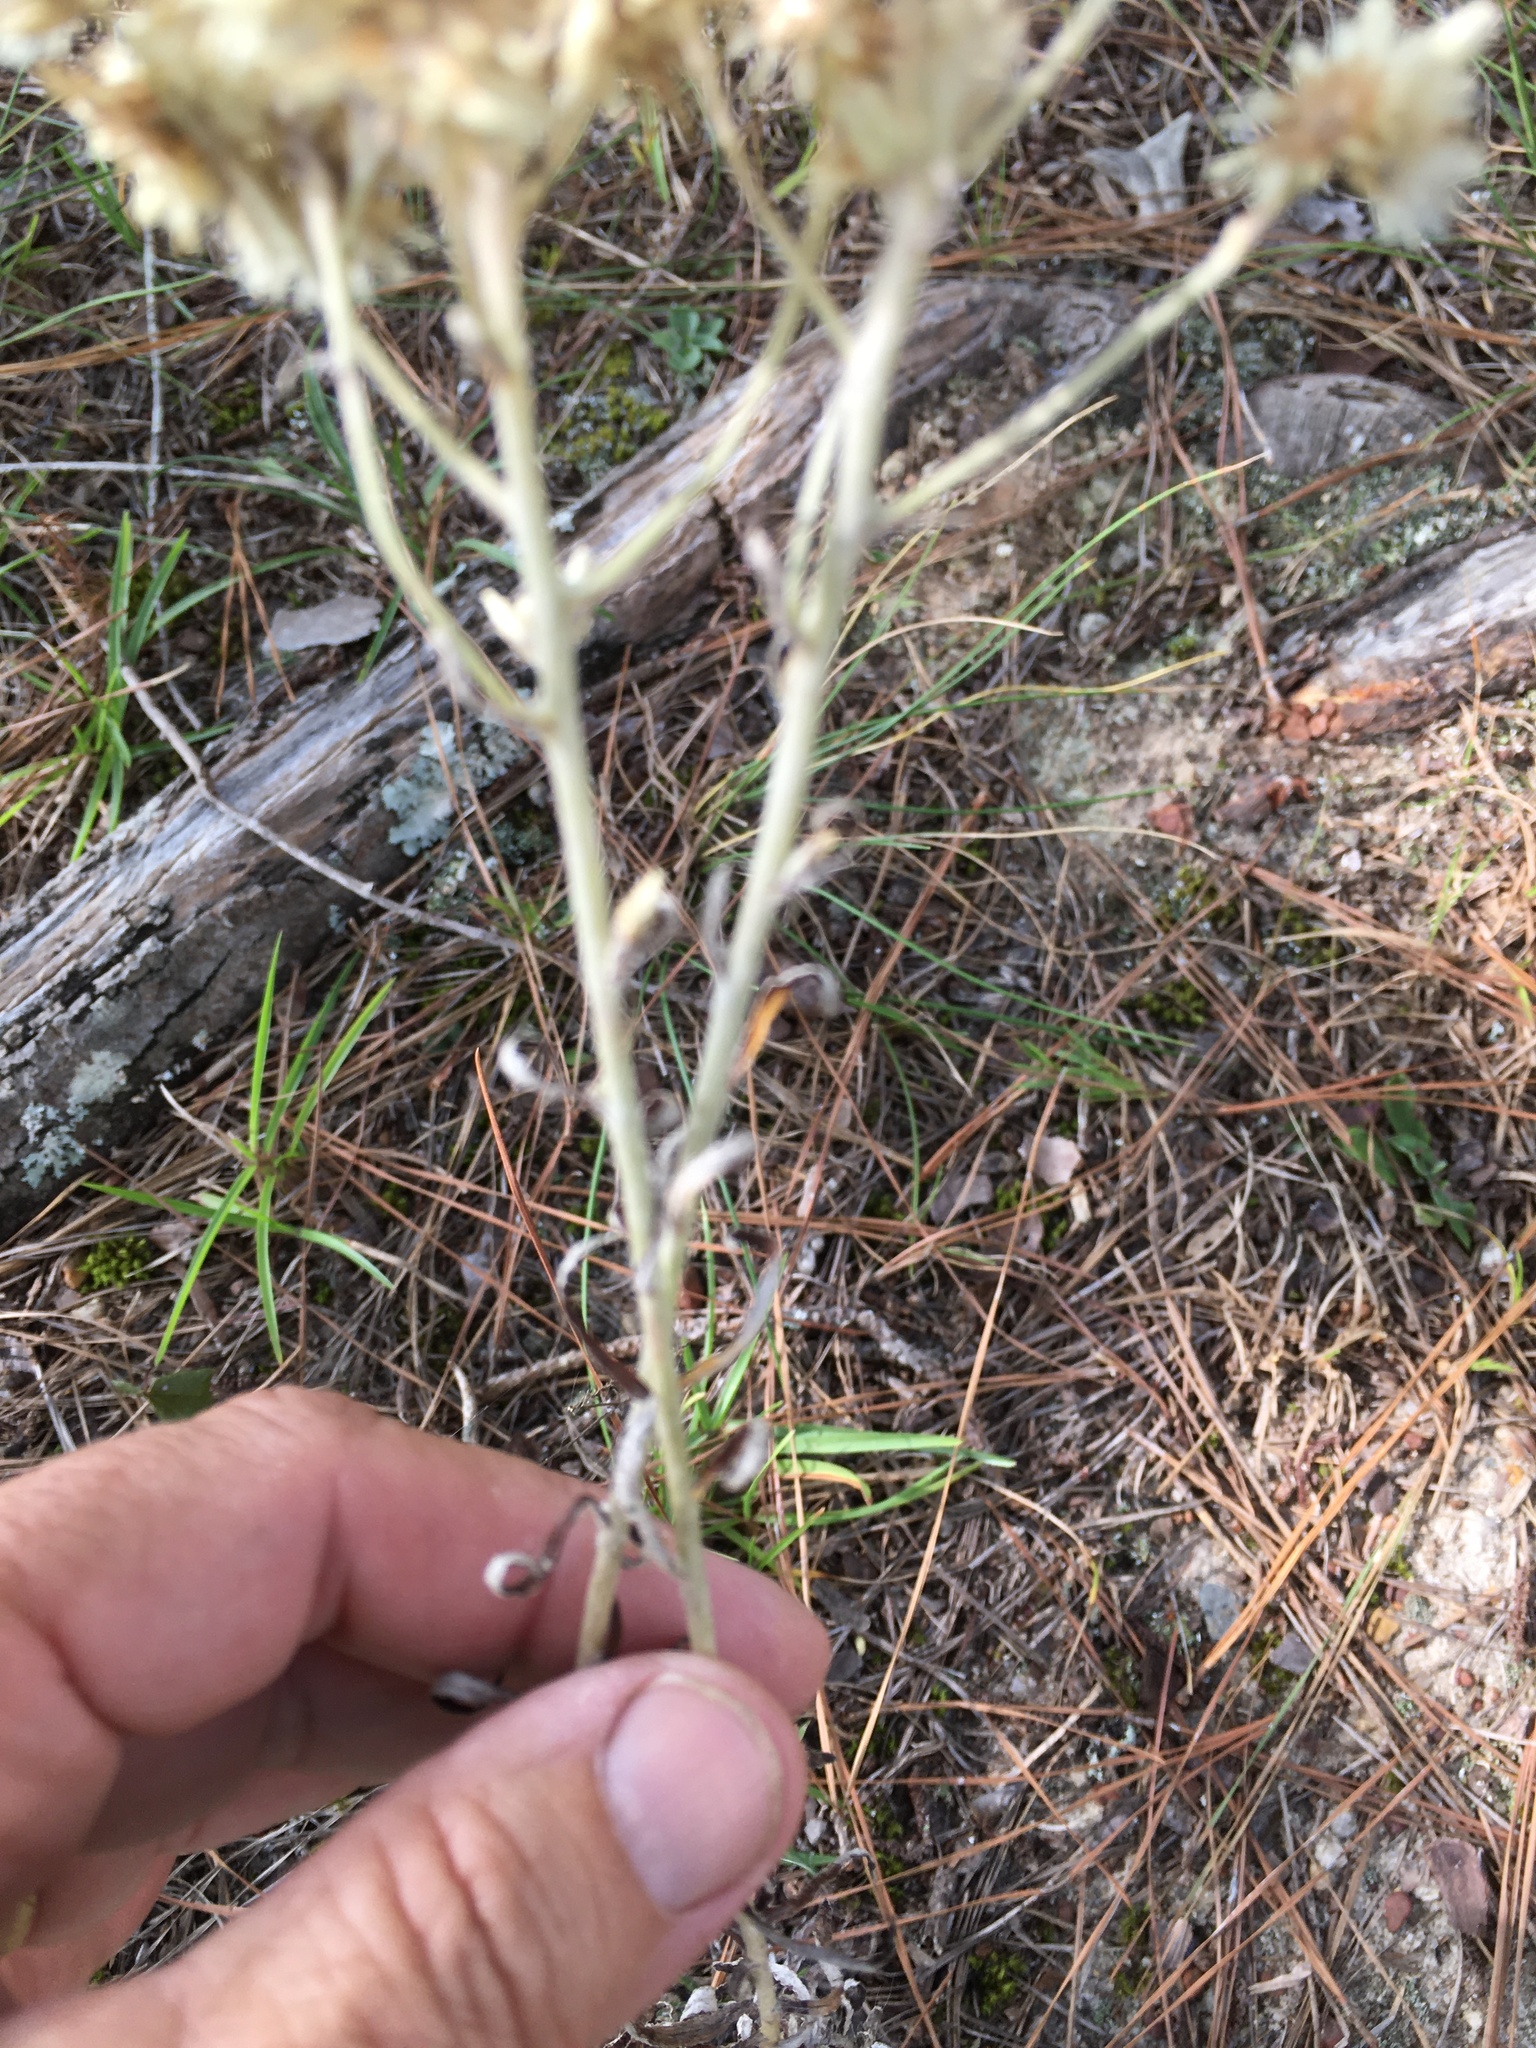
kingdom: Plantae
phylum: Tracheophyta
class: Magnoliopsida
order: Asterales
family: Asteraceae
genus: Pseudognaphalium
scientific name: Pseudognaphalium obtusifolium
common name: Eastern rabbit-tobacco
